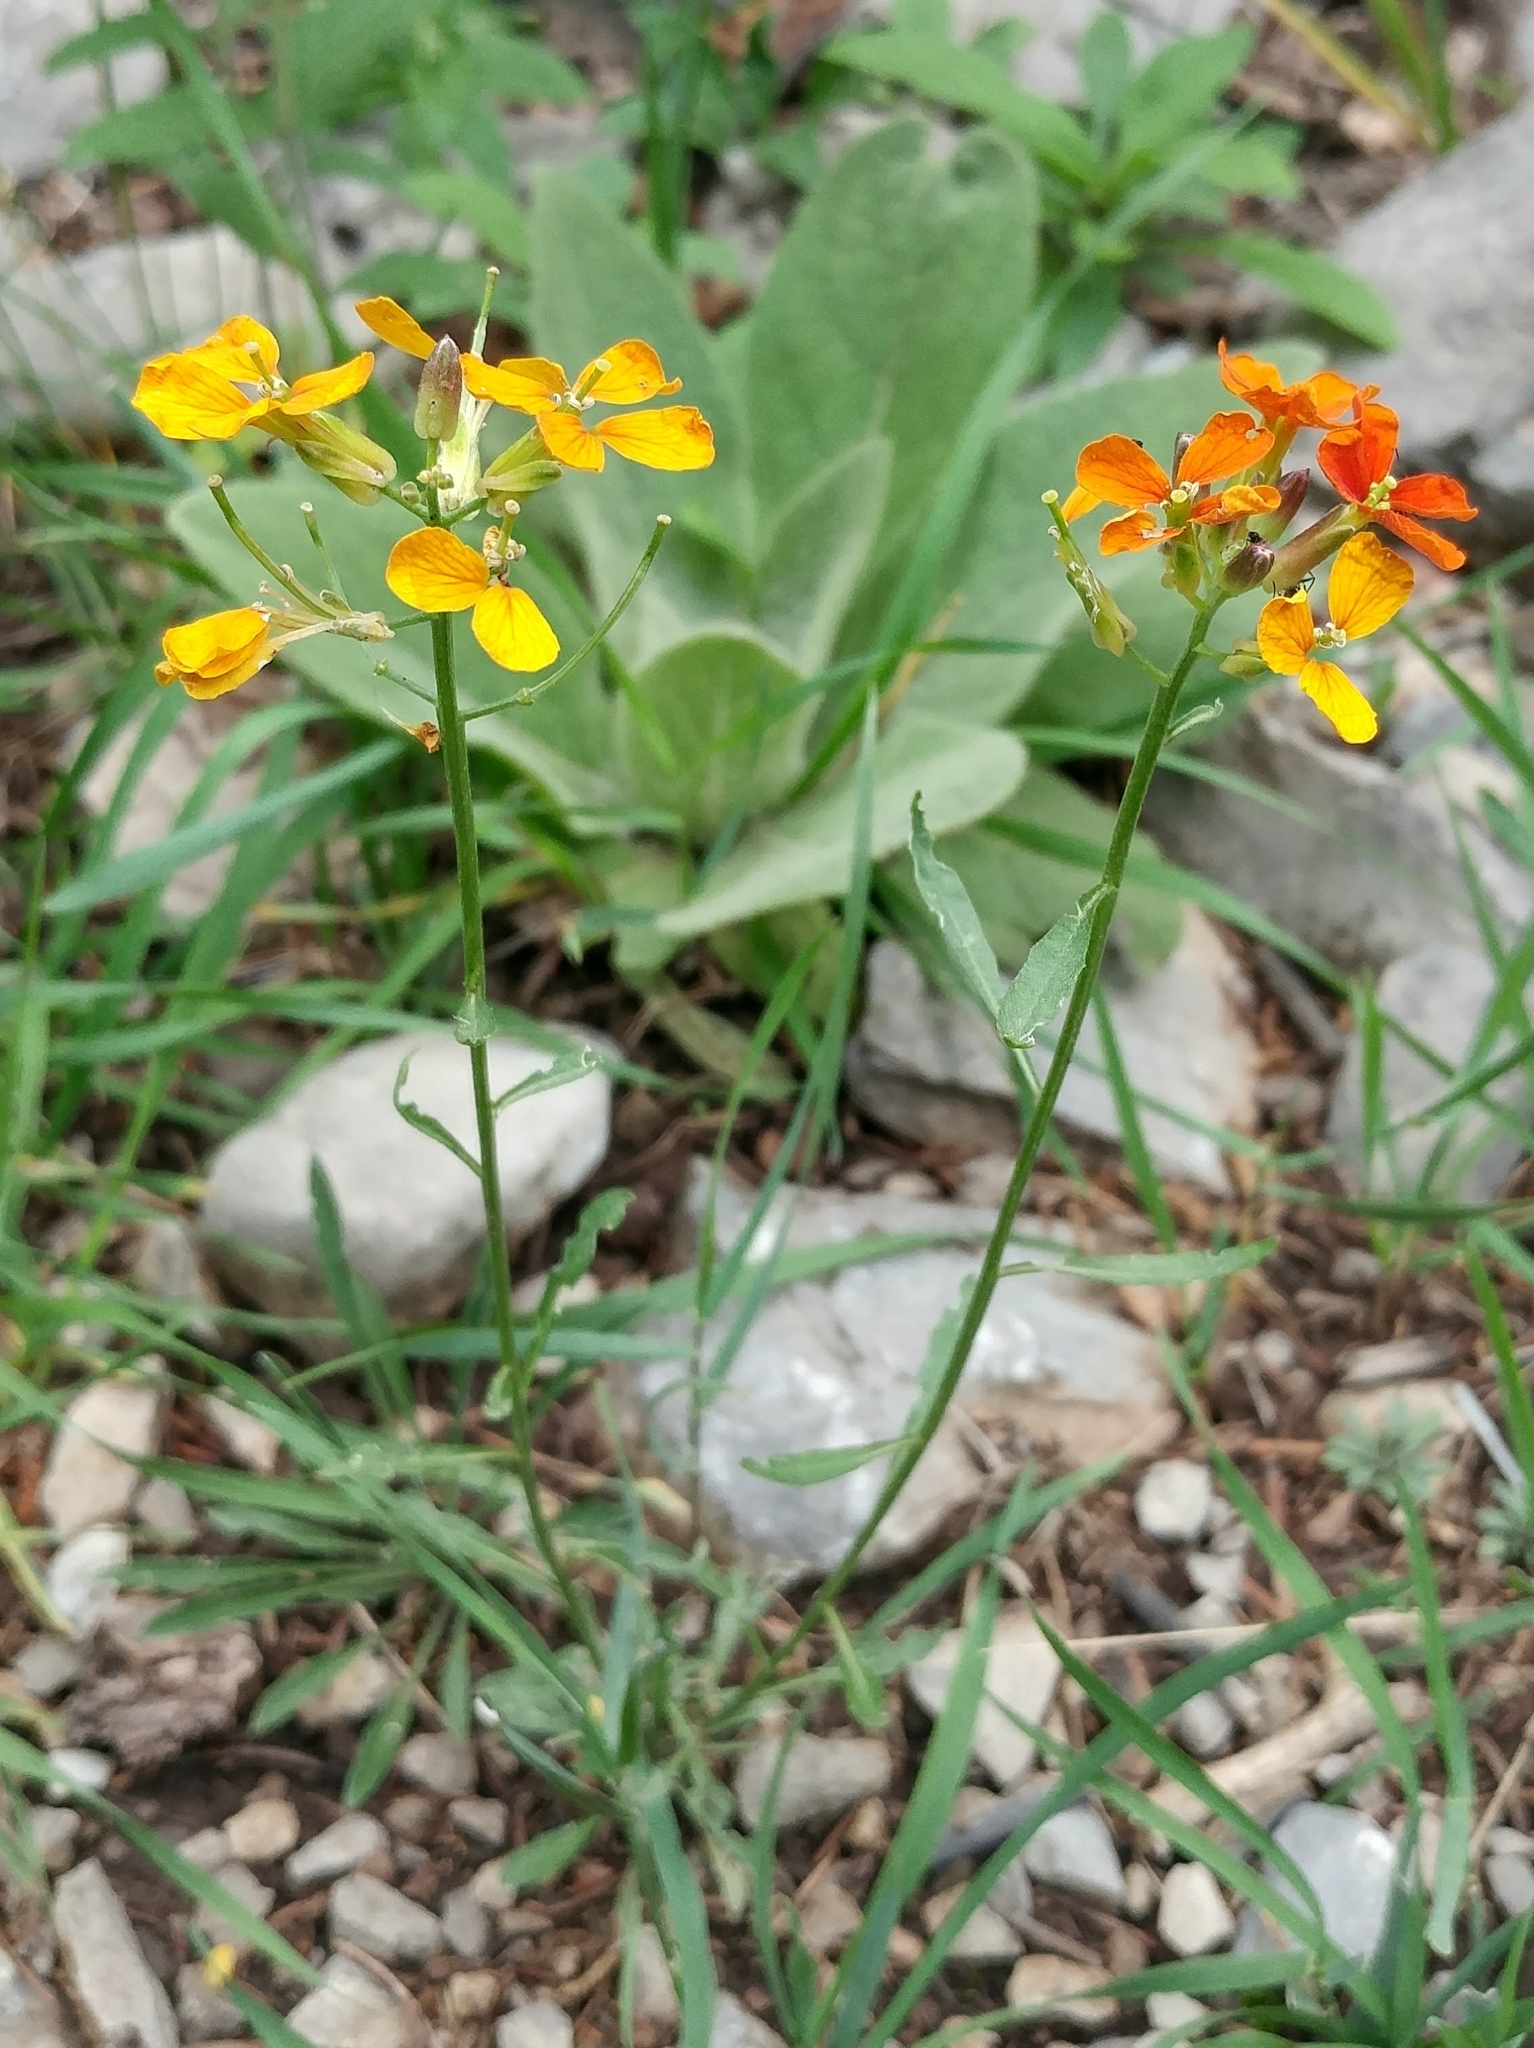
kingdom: Plantae
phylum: Tracheophyta
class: Magnoliopsida
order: Brassicales
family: Brassicaceae
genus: Erysimum
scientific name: Erysimum capitatum
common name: Western wallflower
